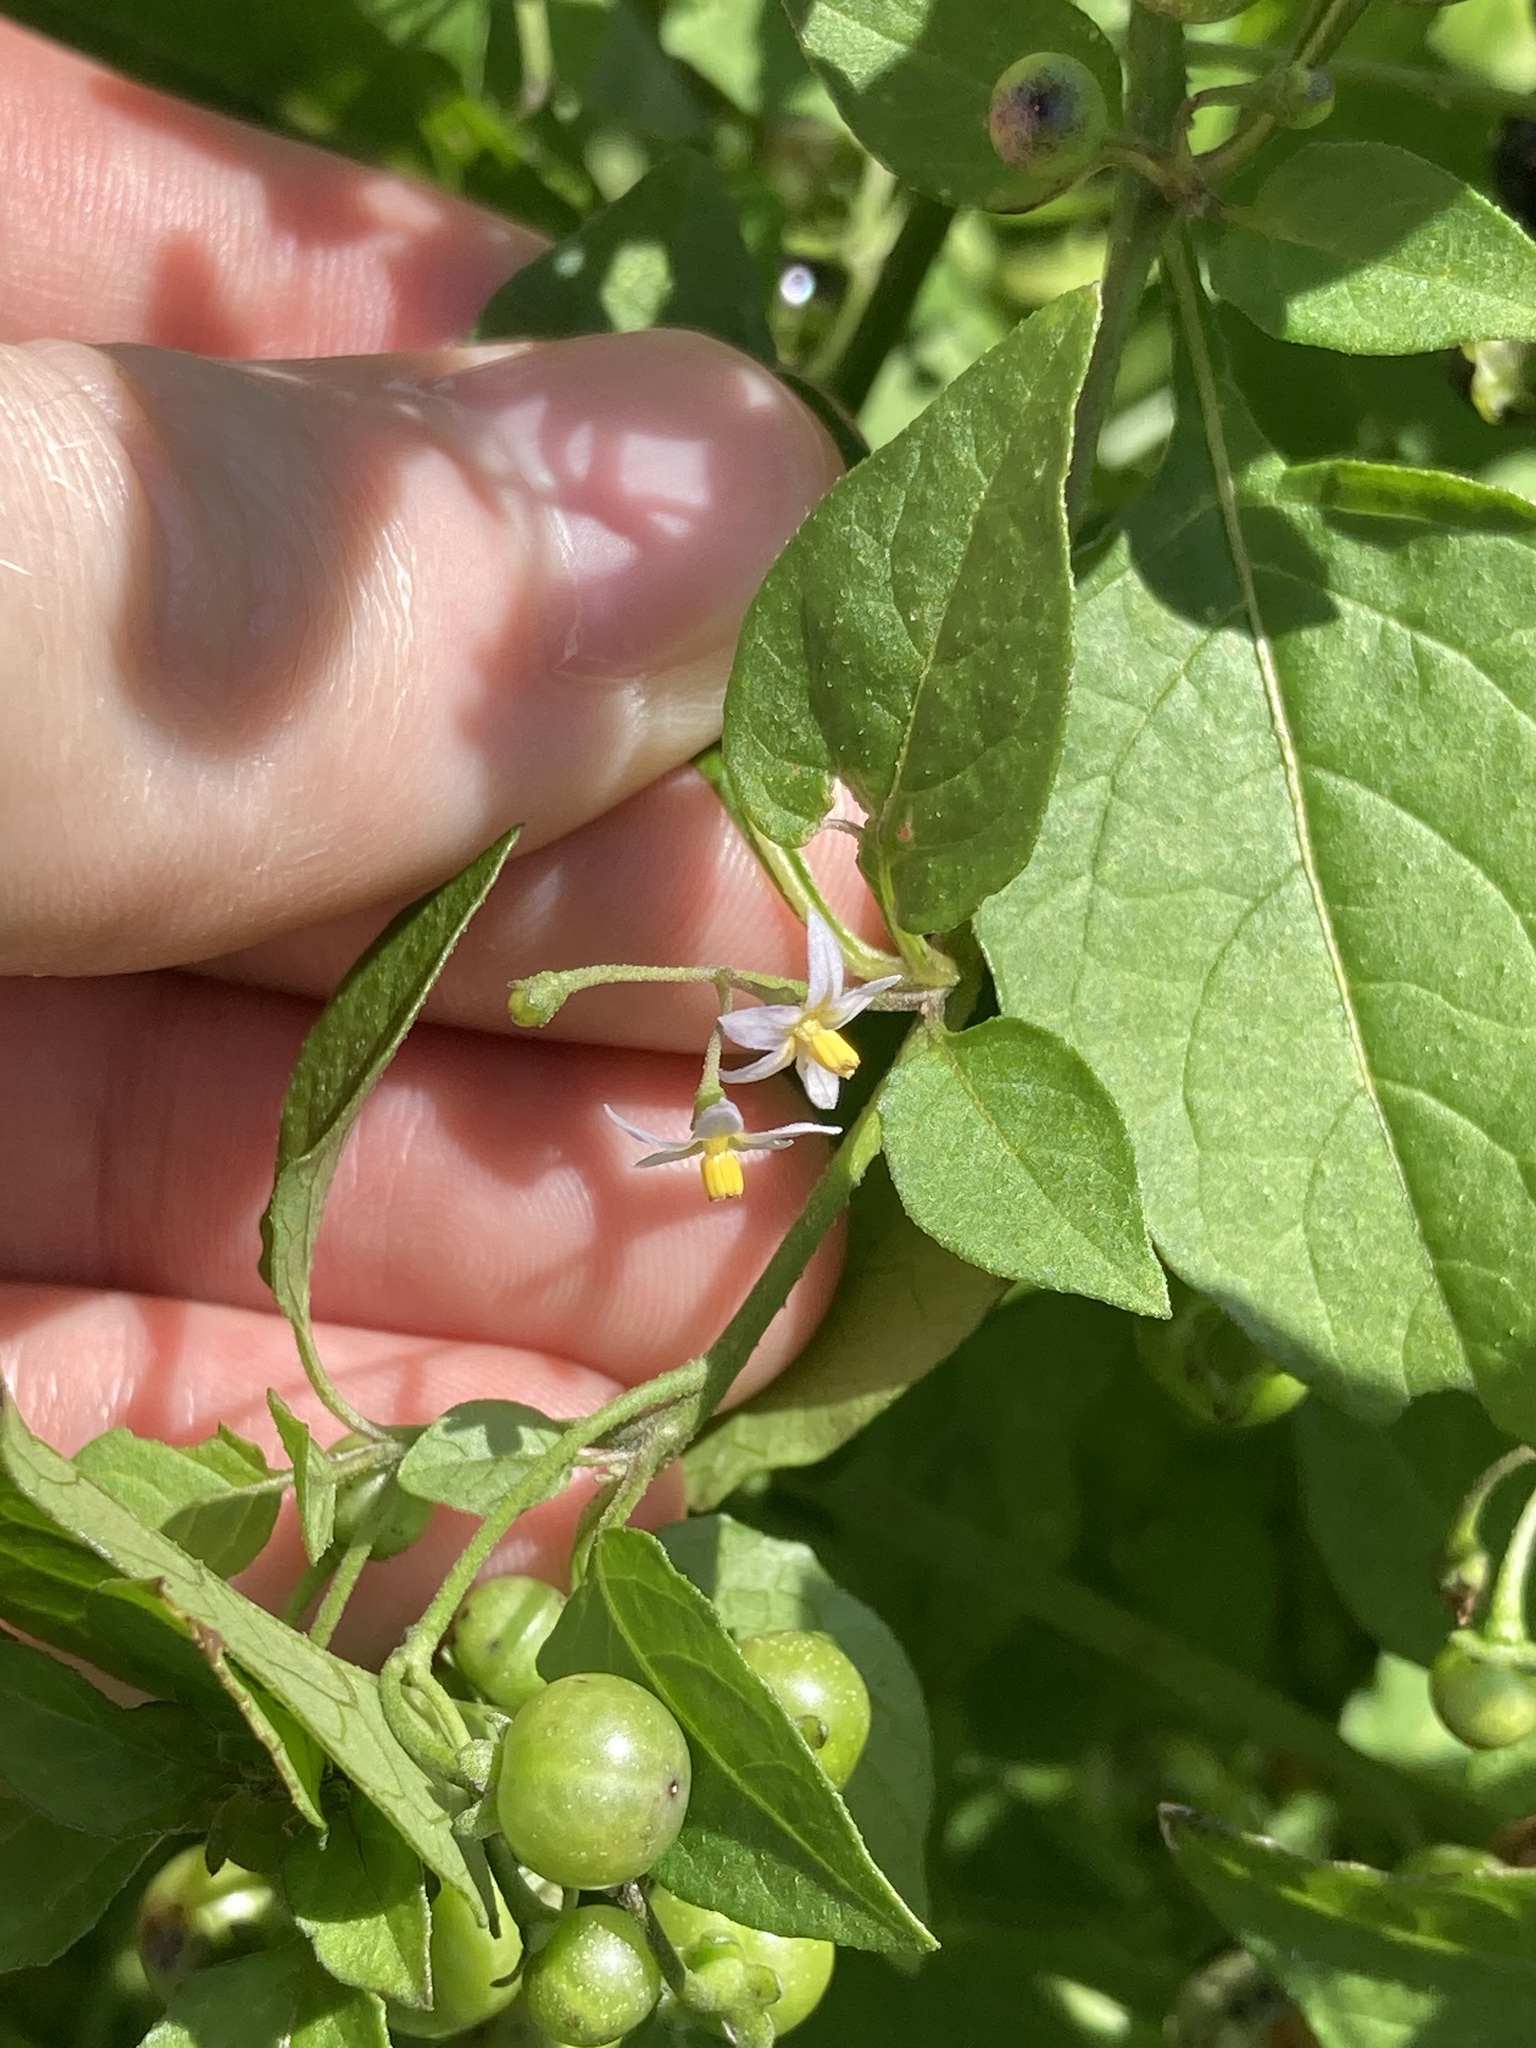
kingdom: Plantae
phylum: Tracheophyta
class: Magnoliopsida
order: Solanales
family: Solanaceae
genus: Solanum
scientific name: Solanum americanum
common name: American black nightshade
